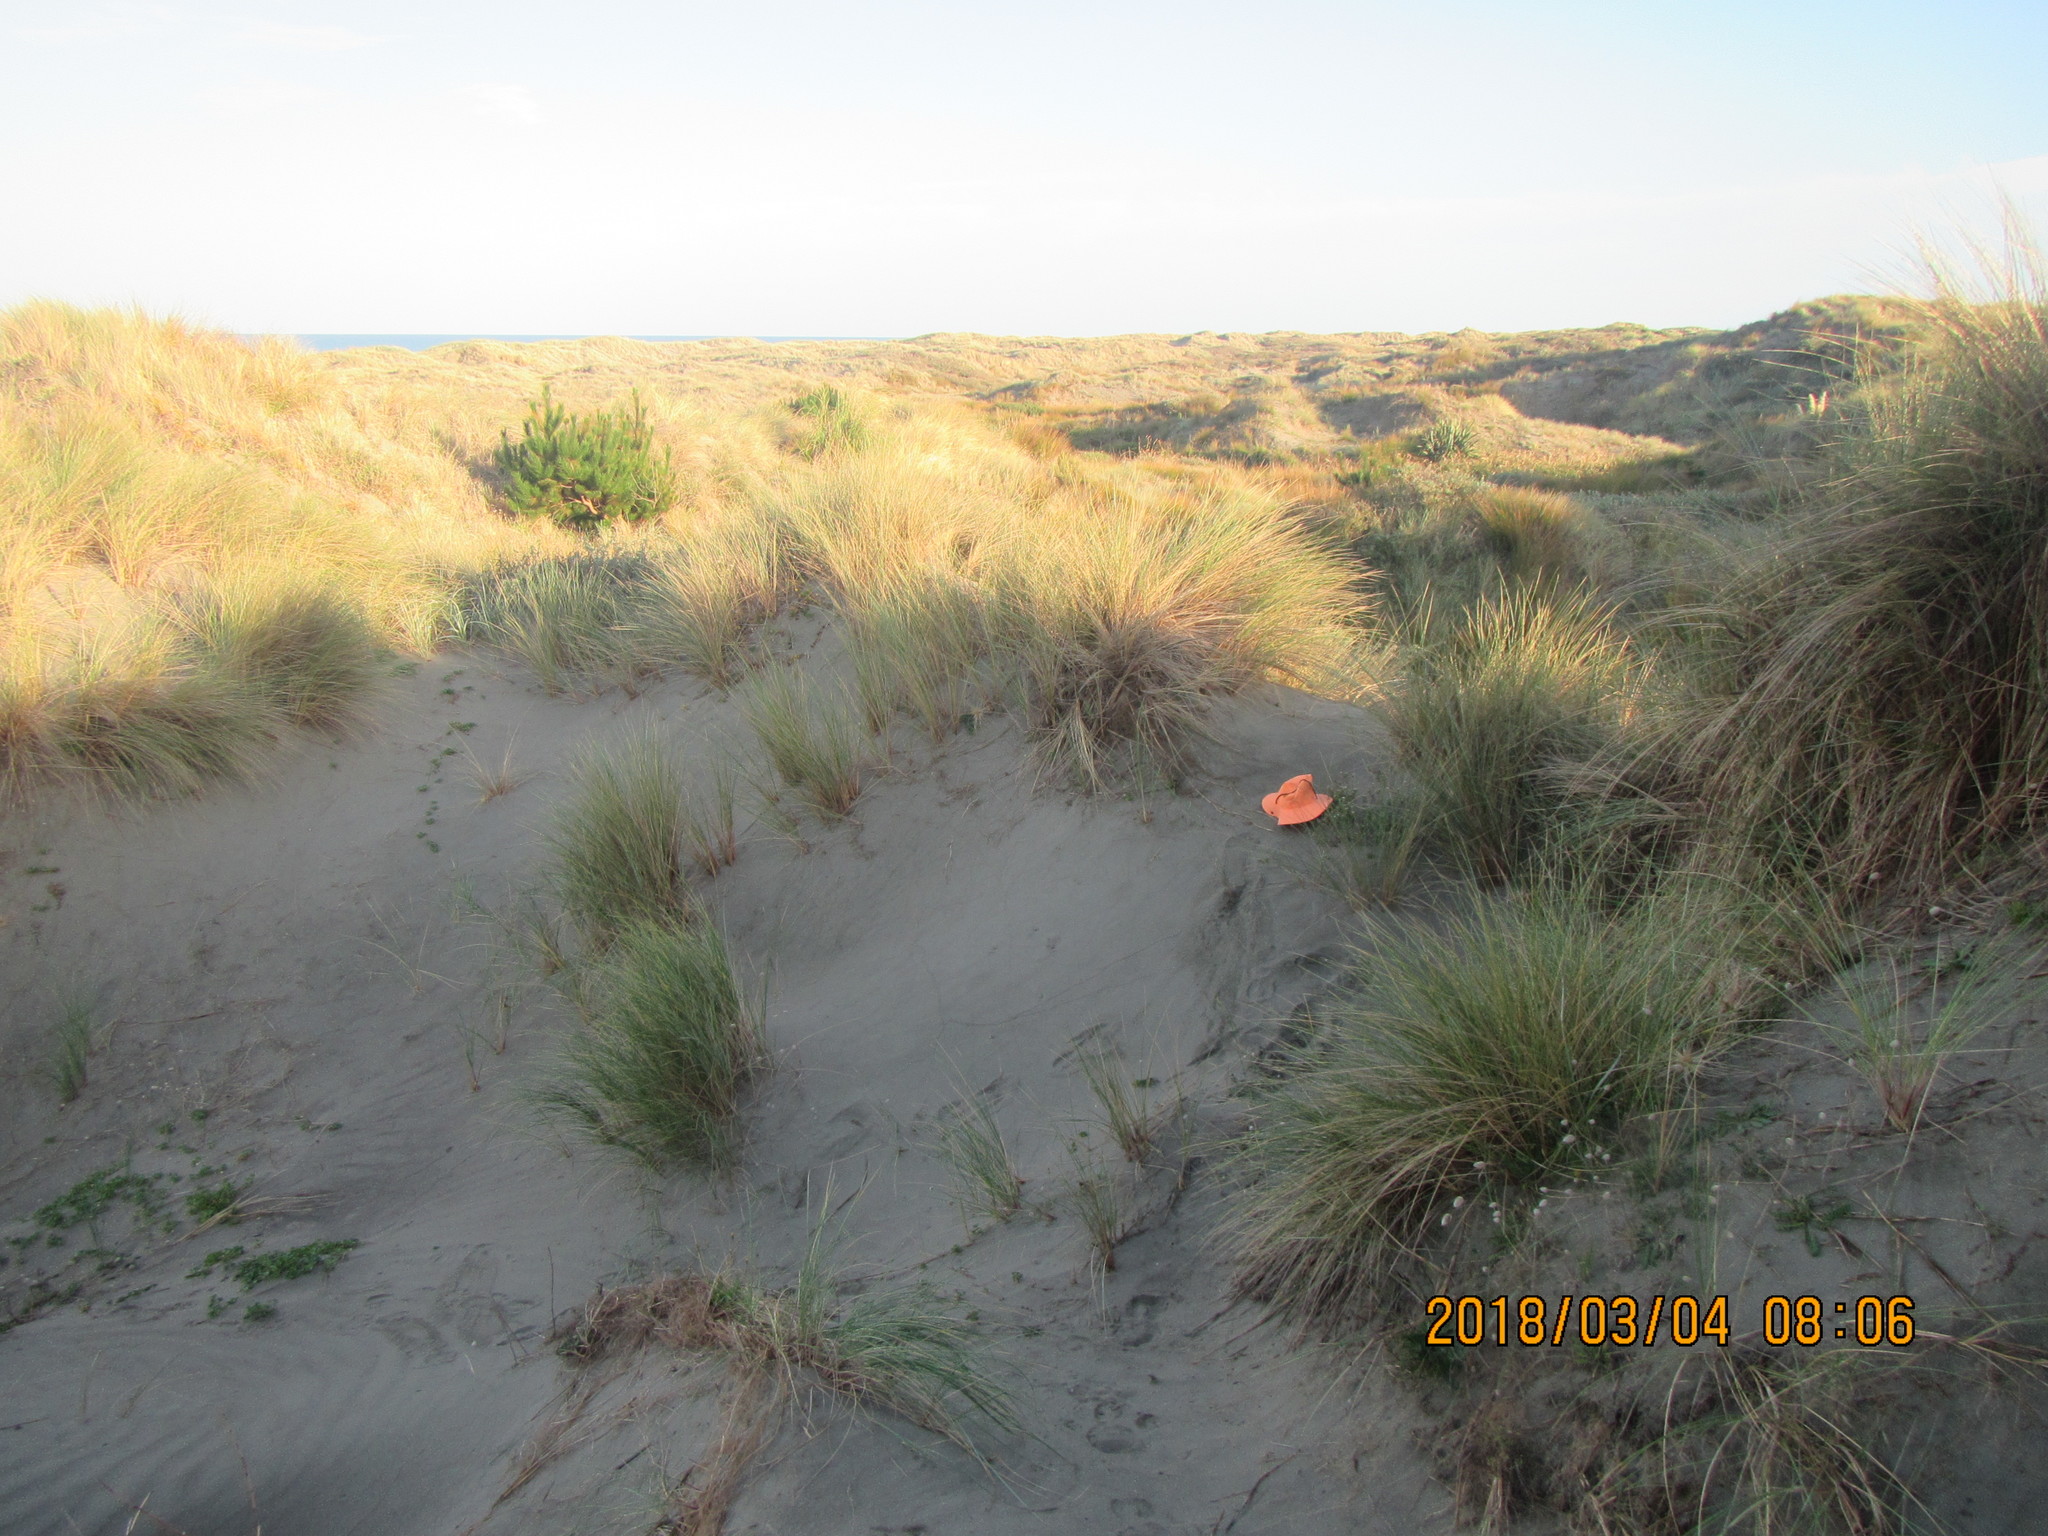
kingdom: Plantae
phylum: Tracheophyta
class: Magnoliopsida
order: Malvales
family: Thymelaeaceae
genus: Pimelea
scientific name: Pimelea villosa
